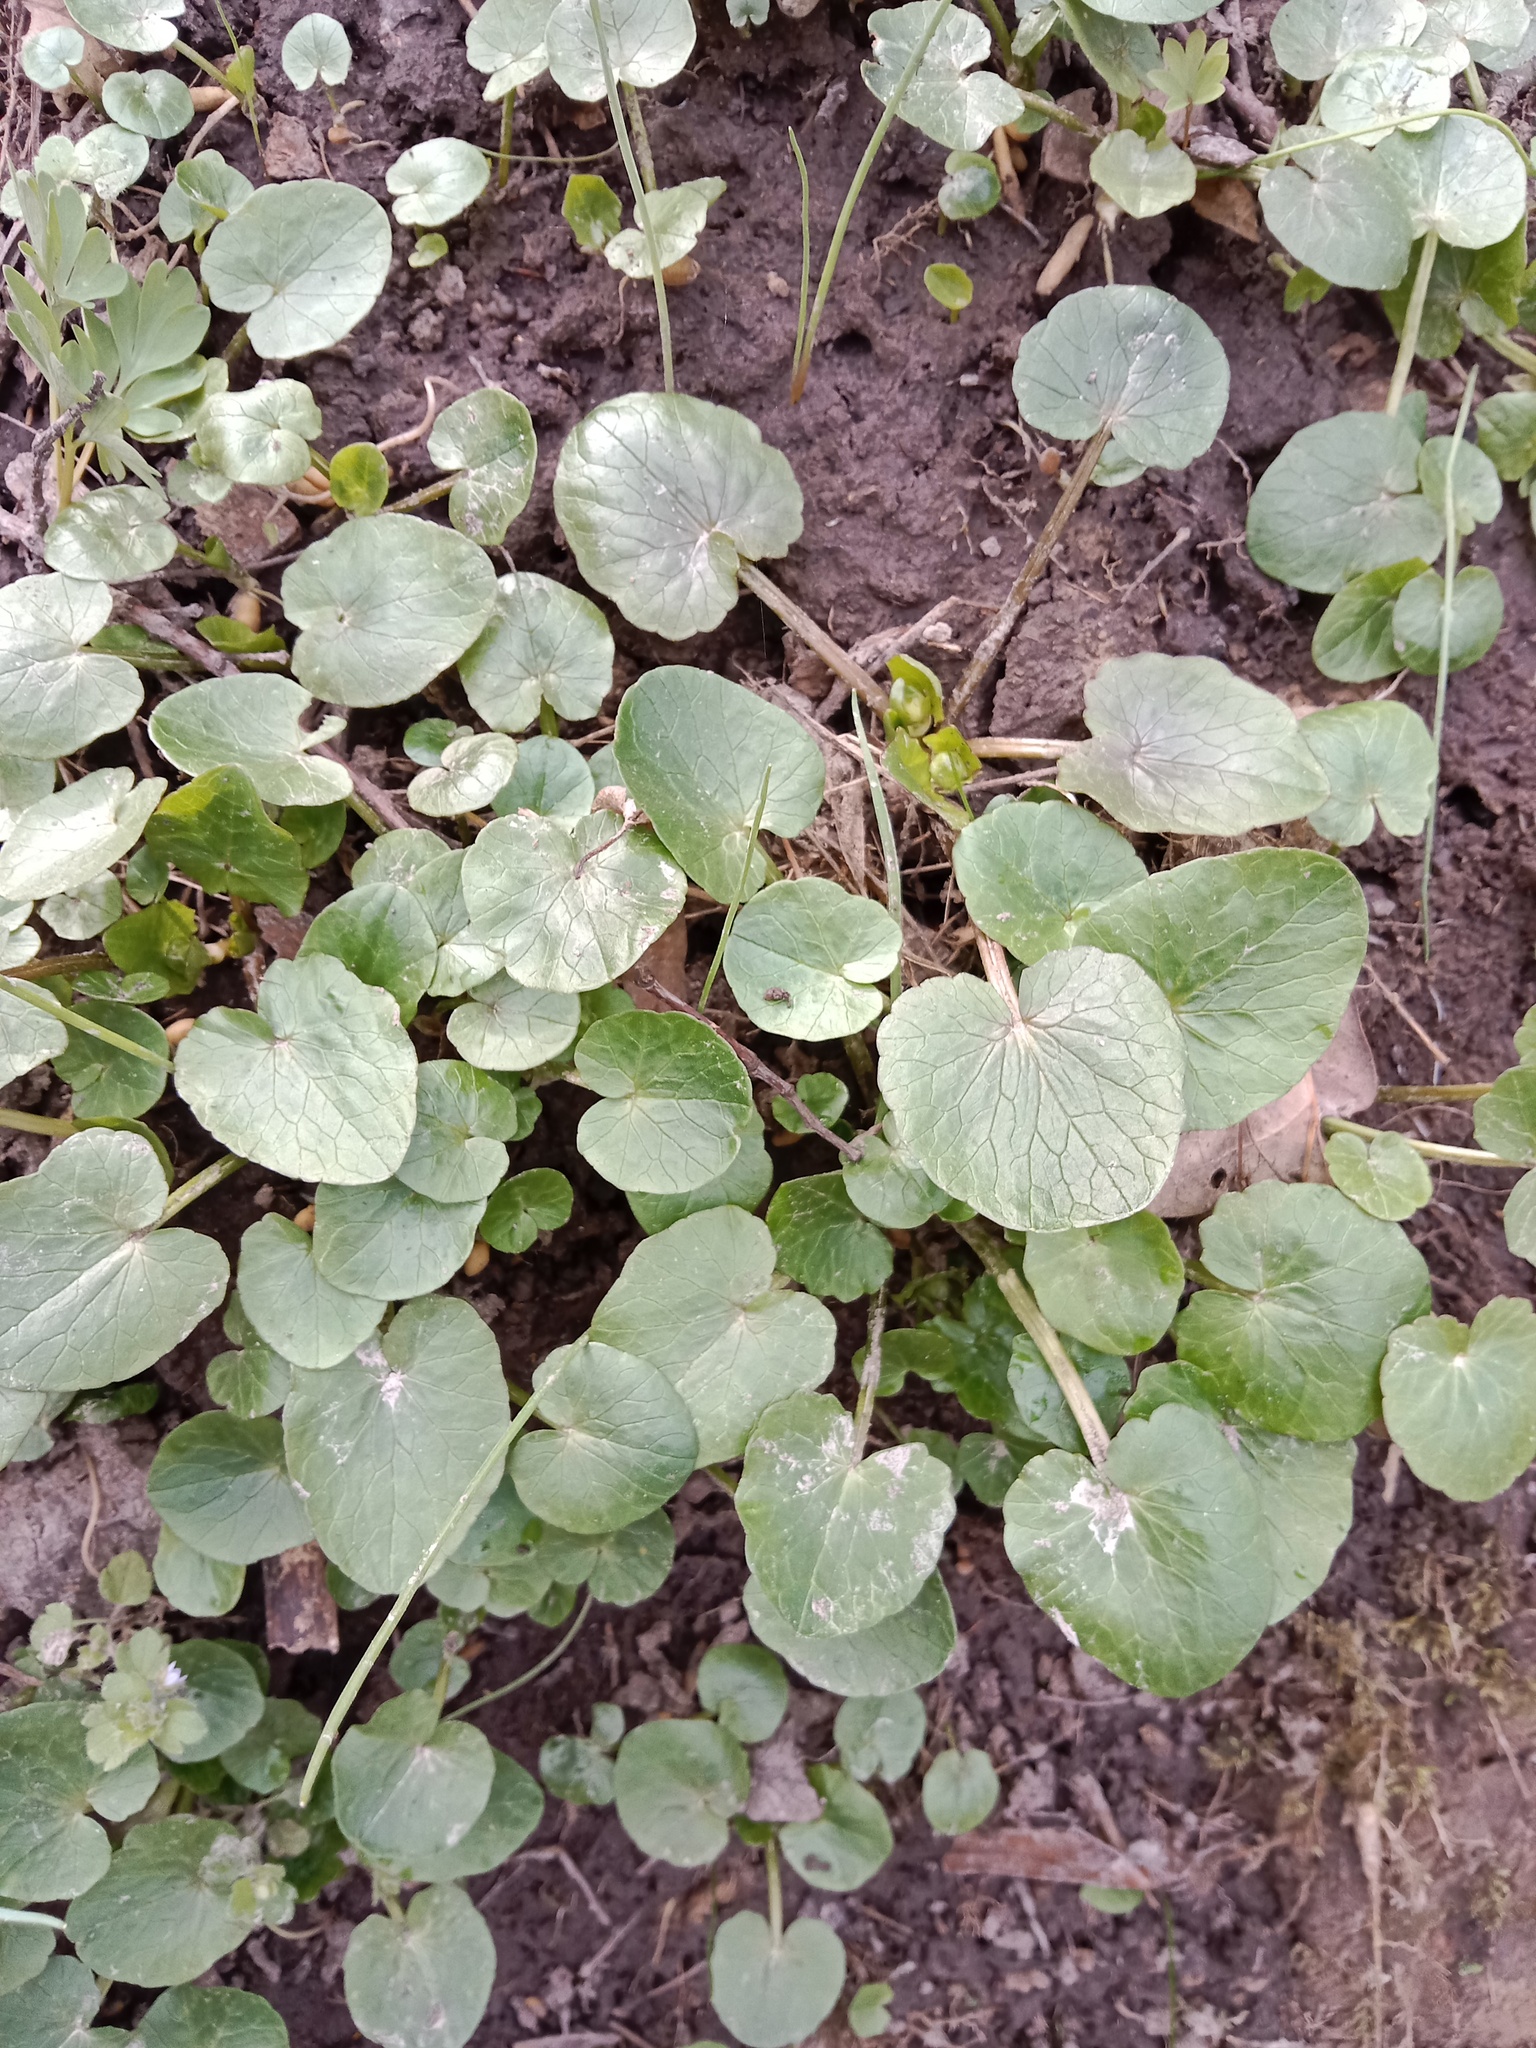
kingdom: Plantae
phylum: Tracheophyta
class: Magnoliopsida
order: Ranunculales
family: Ranunculaceae
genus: Ficaria
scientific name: Ficaria verna
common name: Lesser celandine
